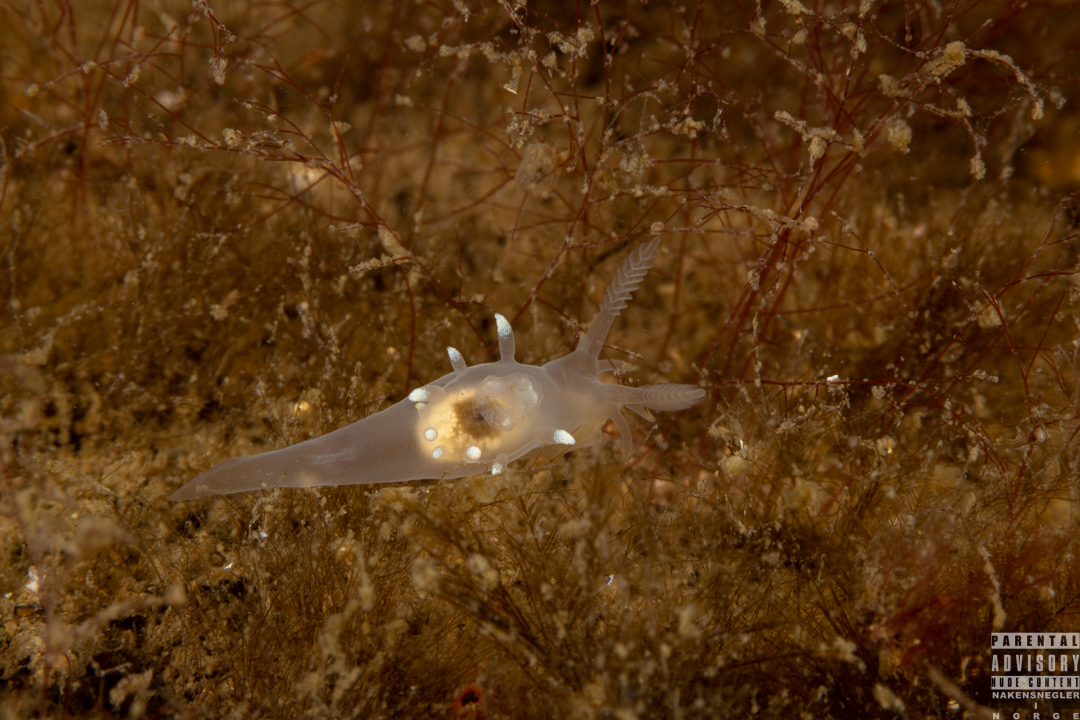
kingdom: Animalia
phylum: Mollusca
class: Gastropoda
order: Nudibranchia
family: Goniodorididae
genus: Ancula
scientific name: Ancula gibbosa
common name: Atlantic ancula
